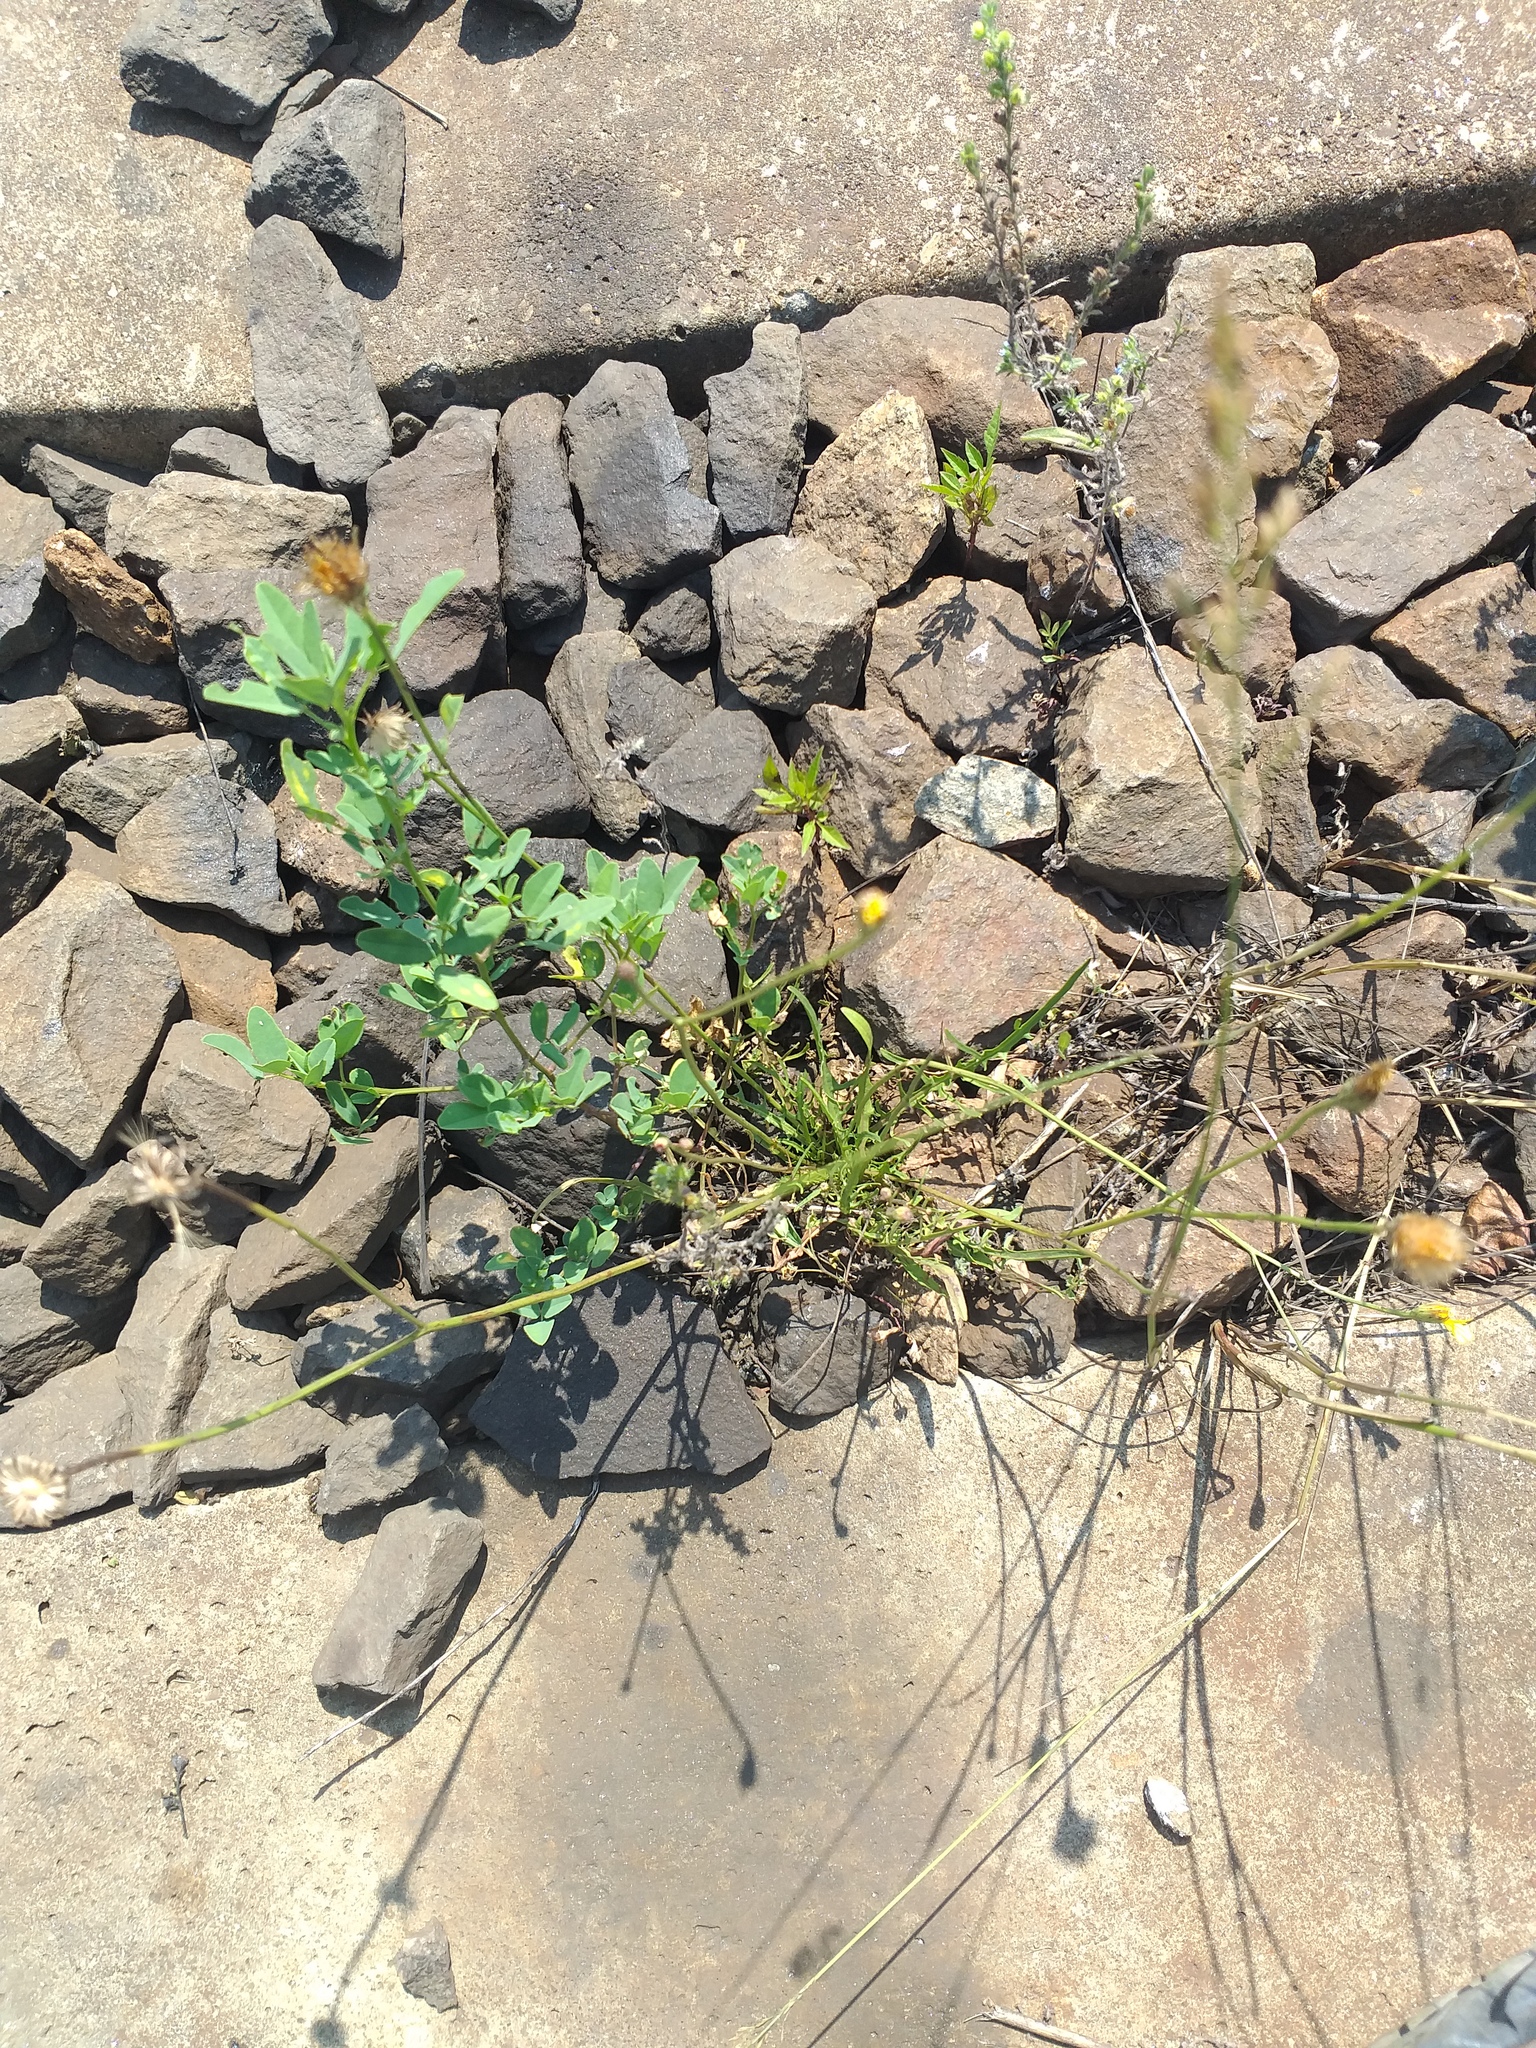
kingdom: Plantae
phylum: Tracheophyta
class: Magnoliopsida
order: Asterales
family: Asteraceae
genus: Scorzoneroides
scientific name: Scorzoneroides autumnalis
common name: Autumn hawkbit
